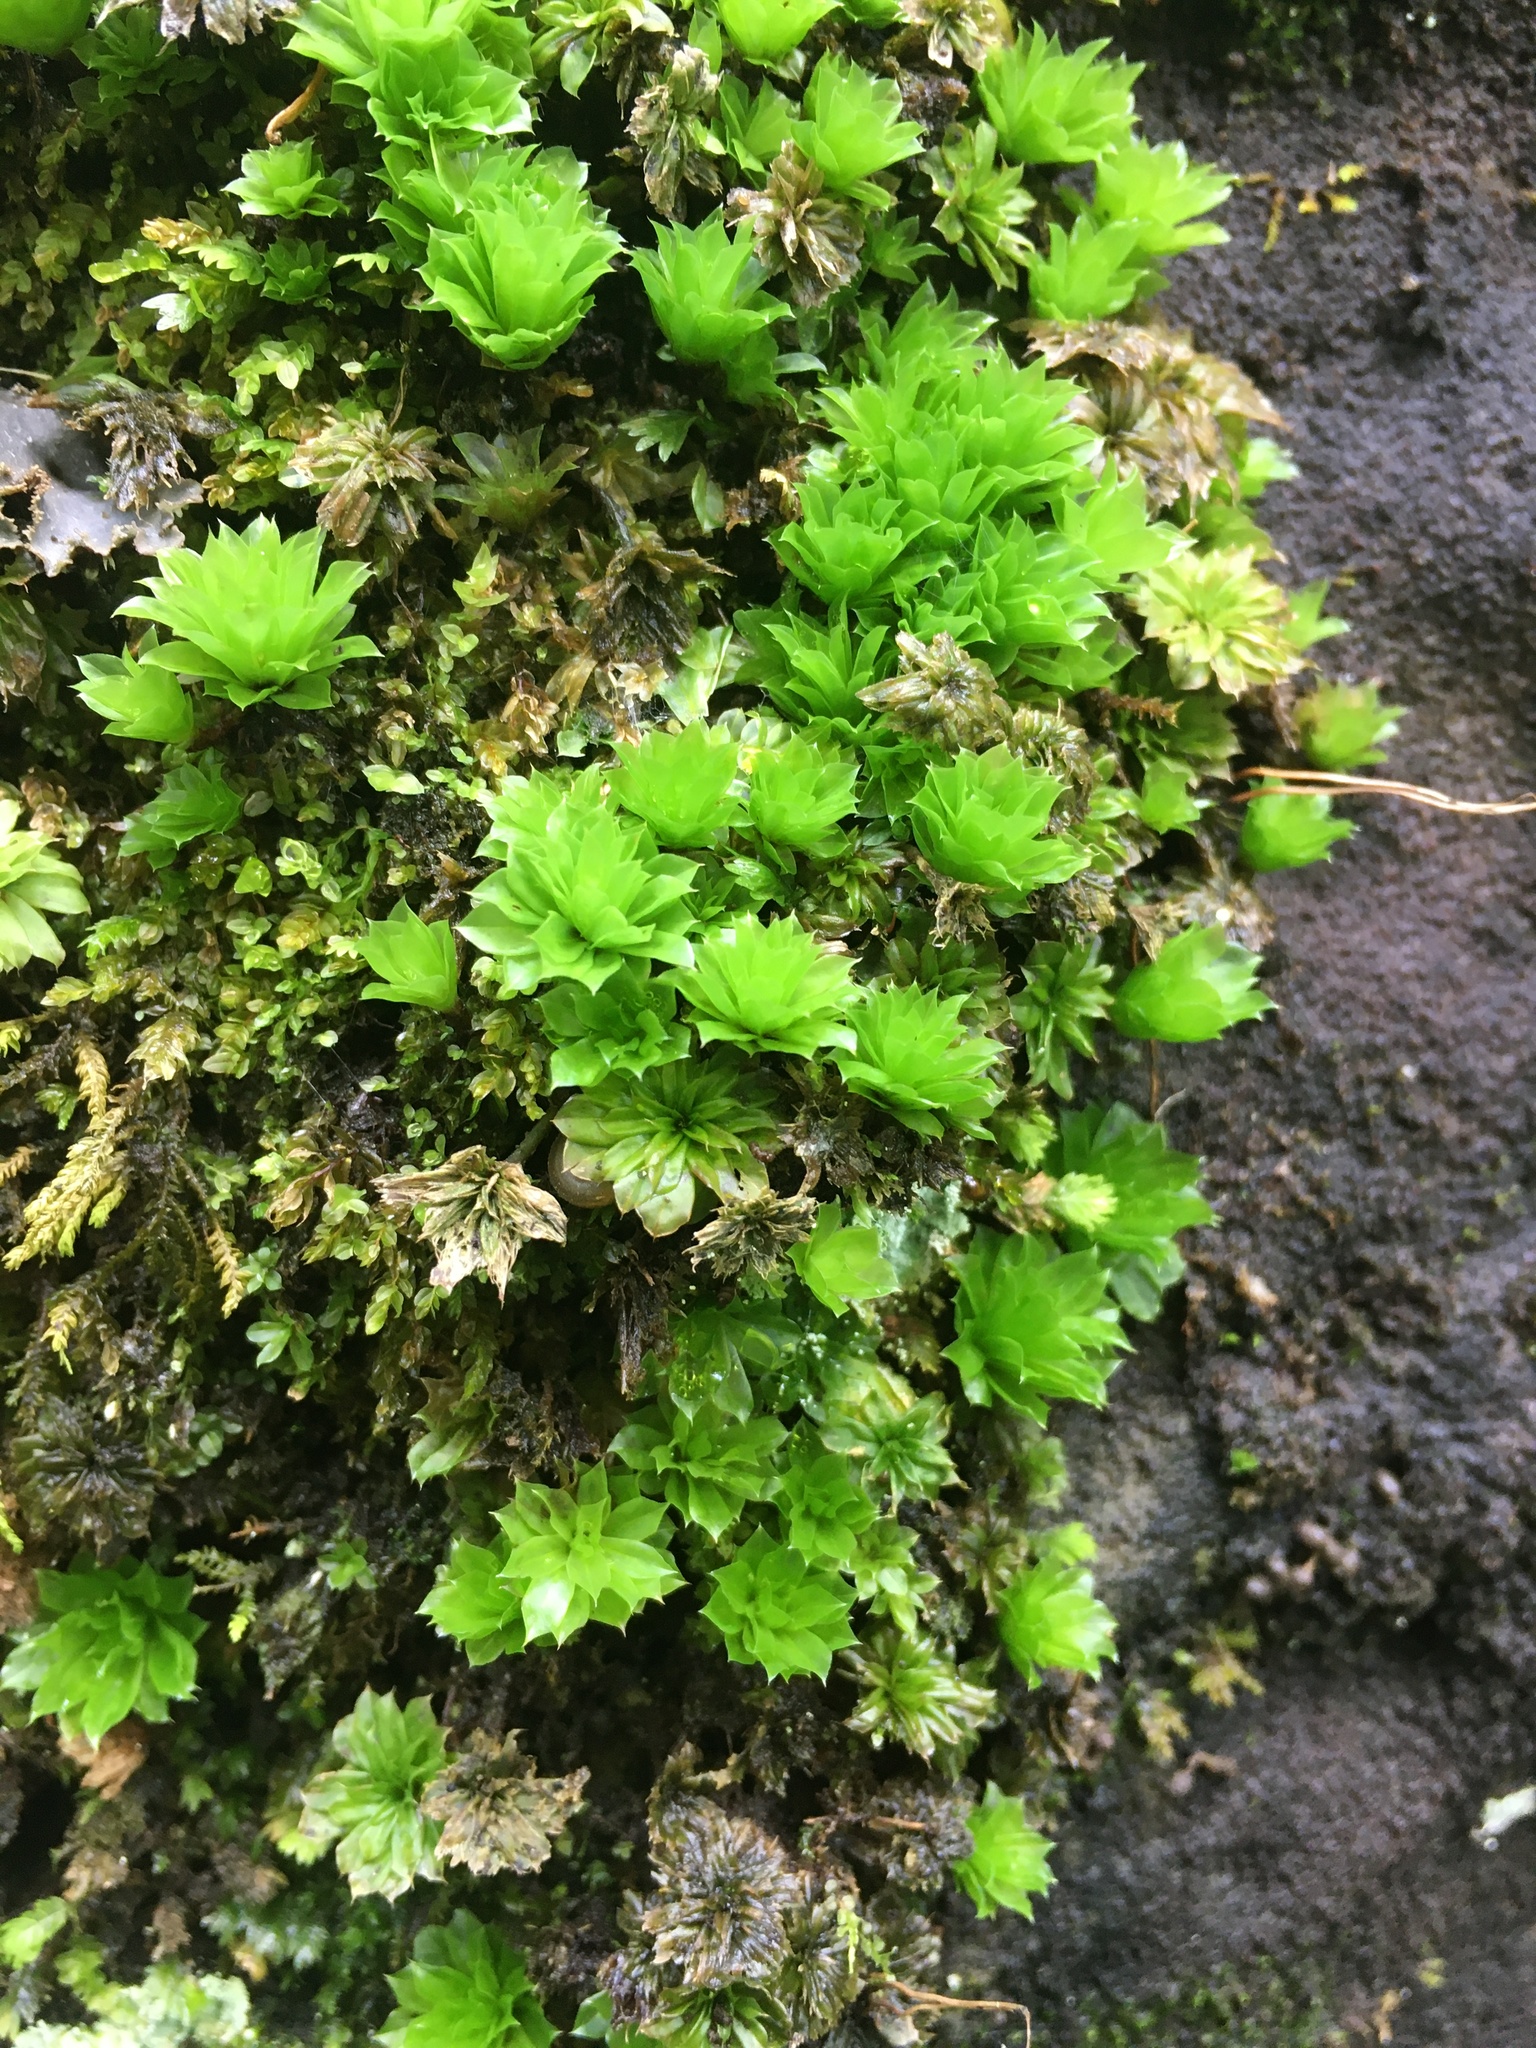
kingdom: Plantae
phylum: Bryophyta
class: Bryopsida
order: Bryales
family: Bryaceae
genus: Rhodobryum
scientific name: Rhodobryum ontariense
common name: Ontario rhodobryum moss
